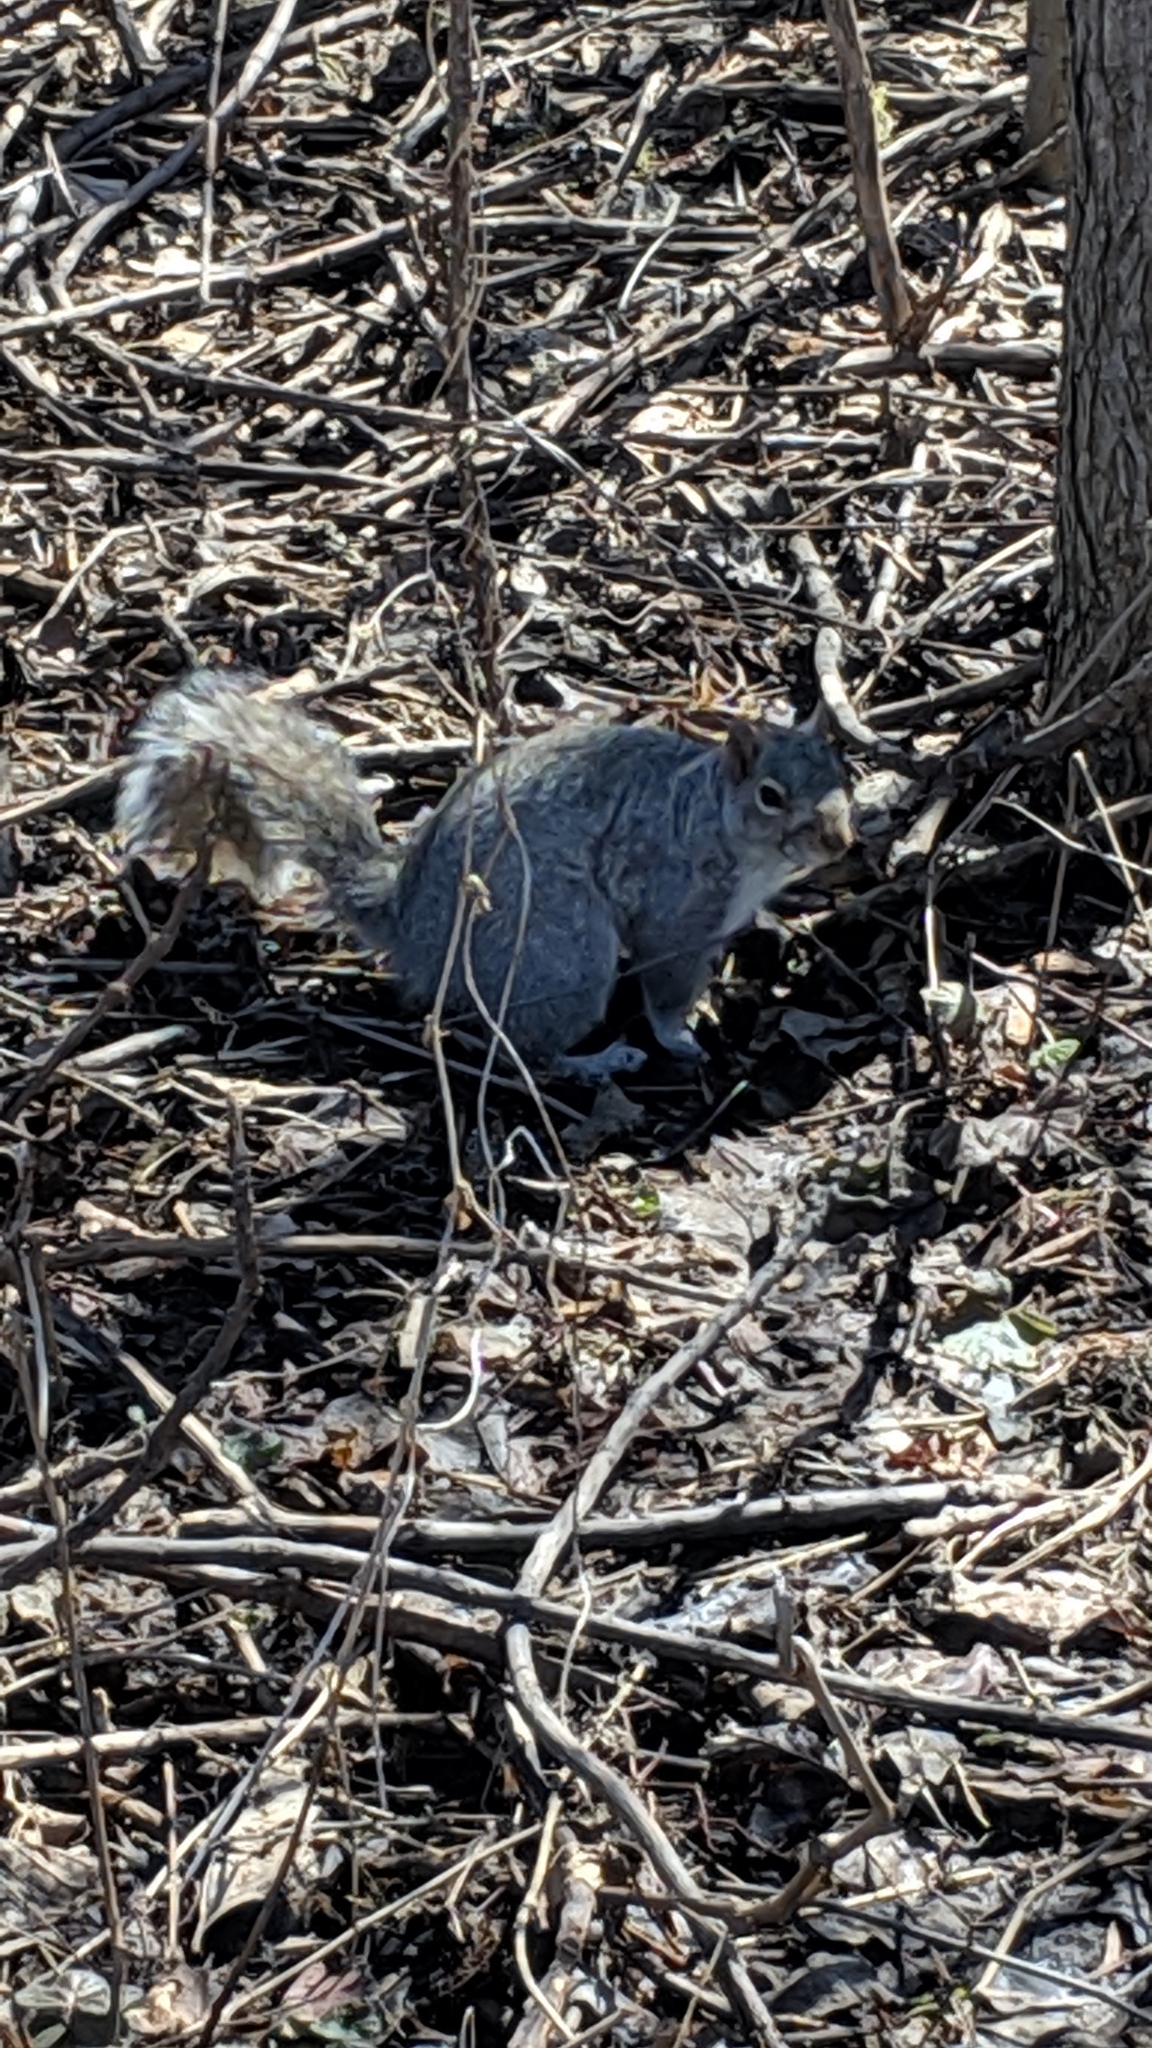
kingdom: Animalia
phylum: Chordata
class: Mammalia
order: Rodentia
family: Sciuridae
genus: Sciurus
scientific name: Sciurus carolinensis
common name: Eastern gray squirrel
